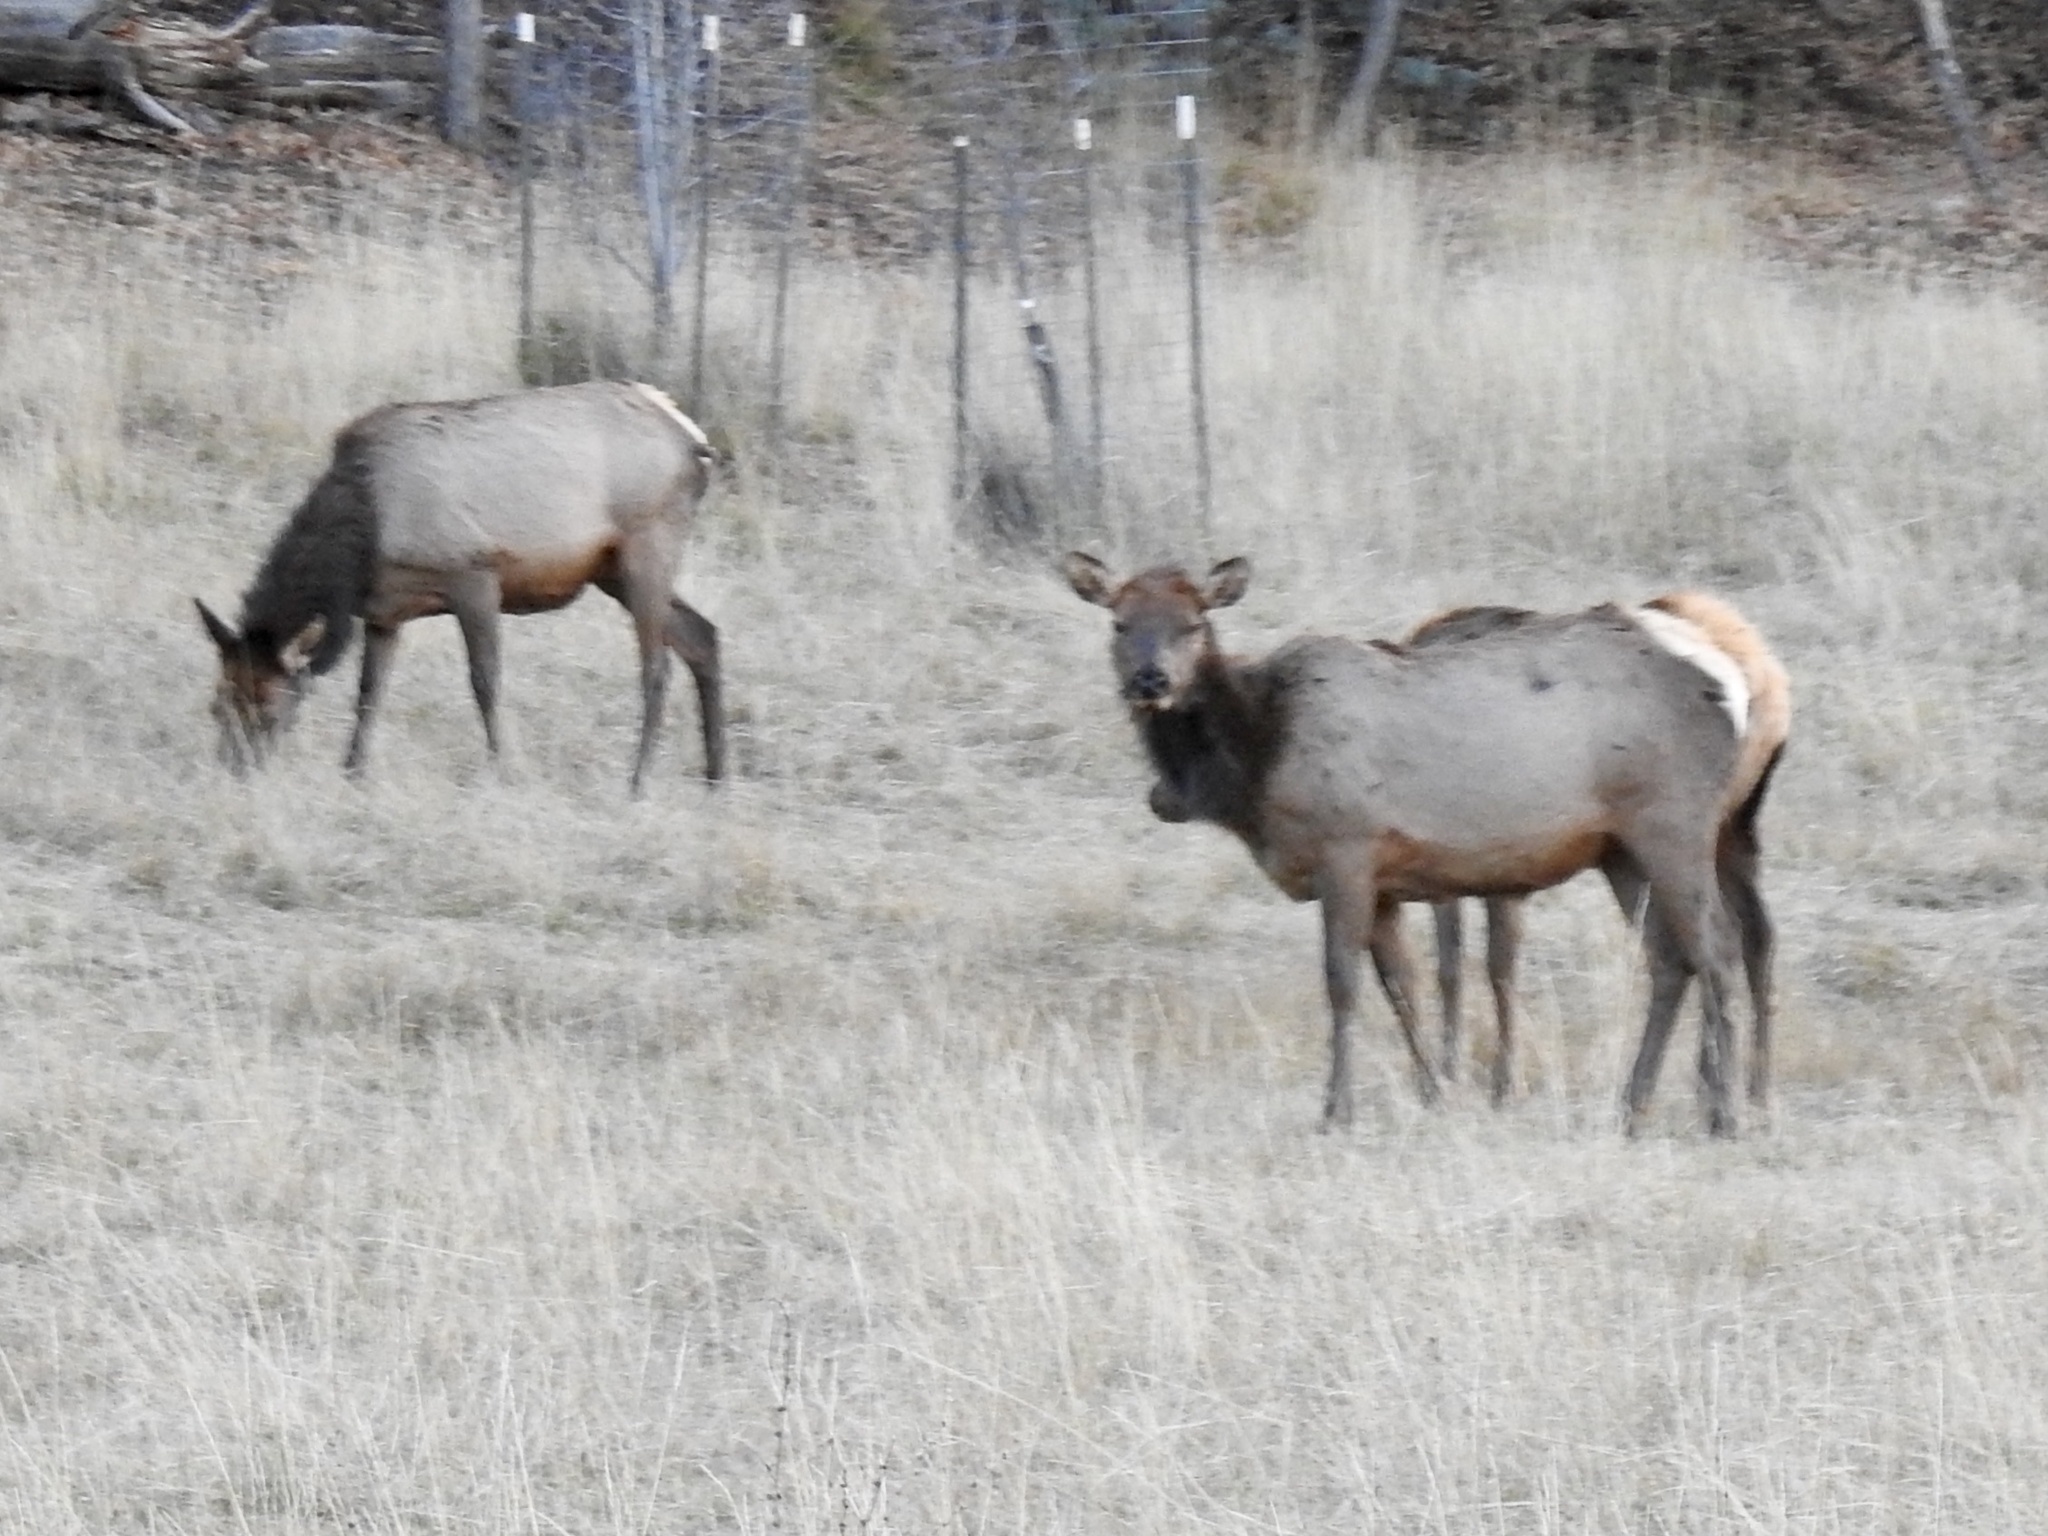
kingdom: Animalia
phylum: Chordata
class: Mammalia
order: Artiodactyla
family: Cervidae
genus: Cervus
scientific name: Cervus elaphus
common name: Red deer
